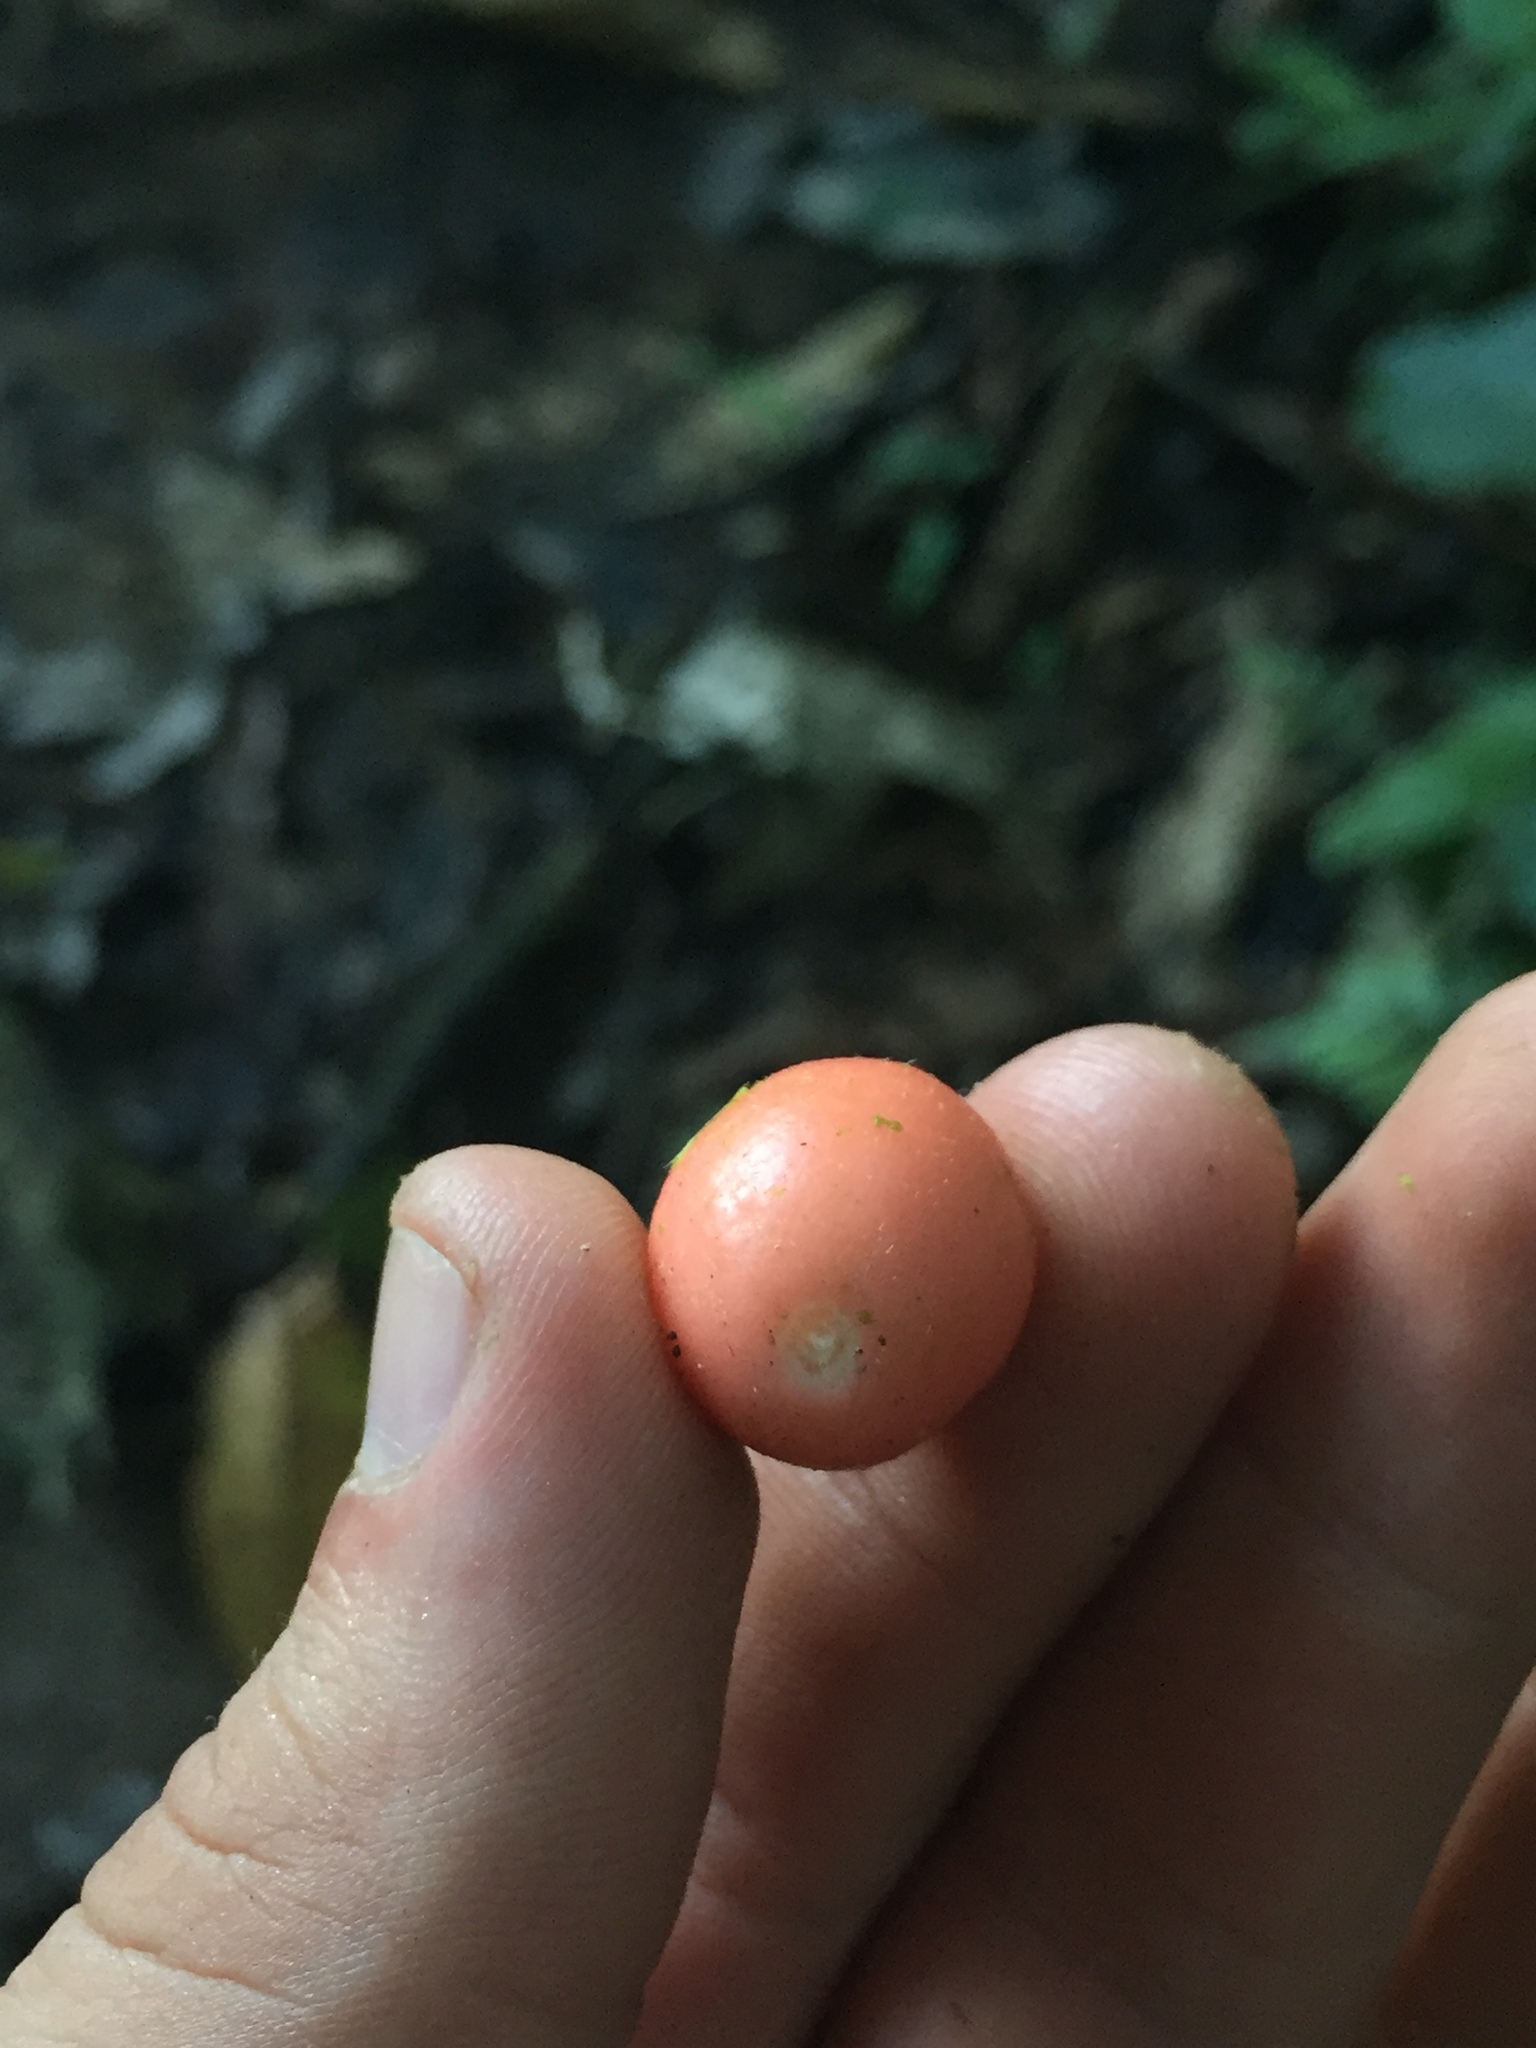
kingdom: Plantae
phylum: Tracheophyta
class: Magnoliopsida
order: Malvales
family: Thymelaeaceae
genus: Schoenobiblus
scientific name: Schoenobiblus daphnoides
